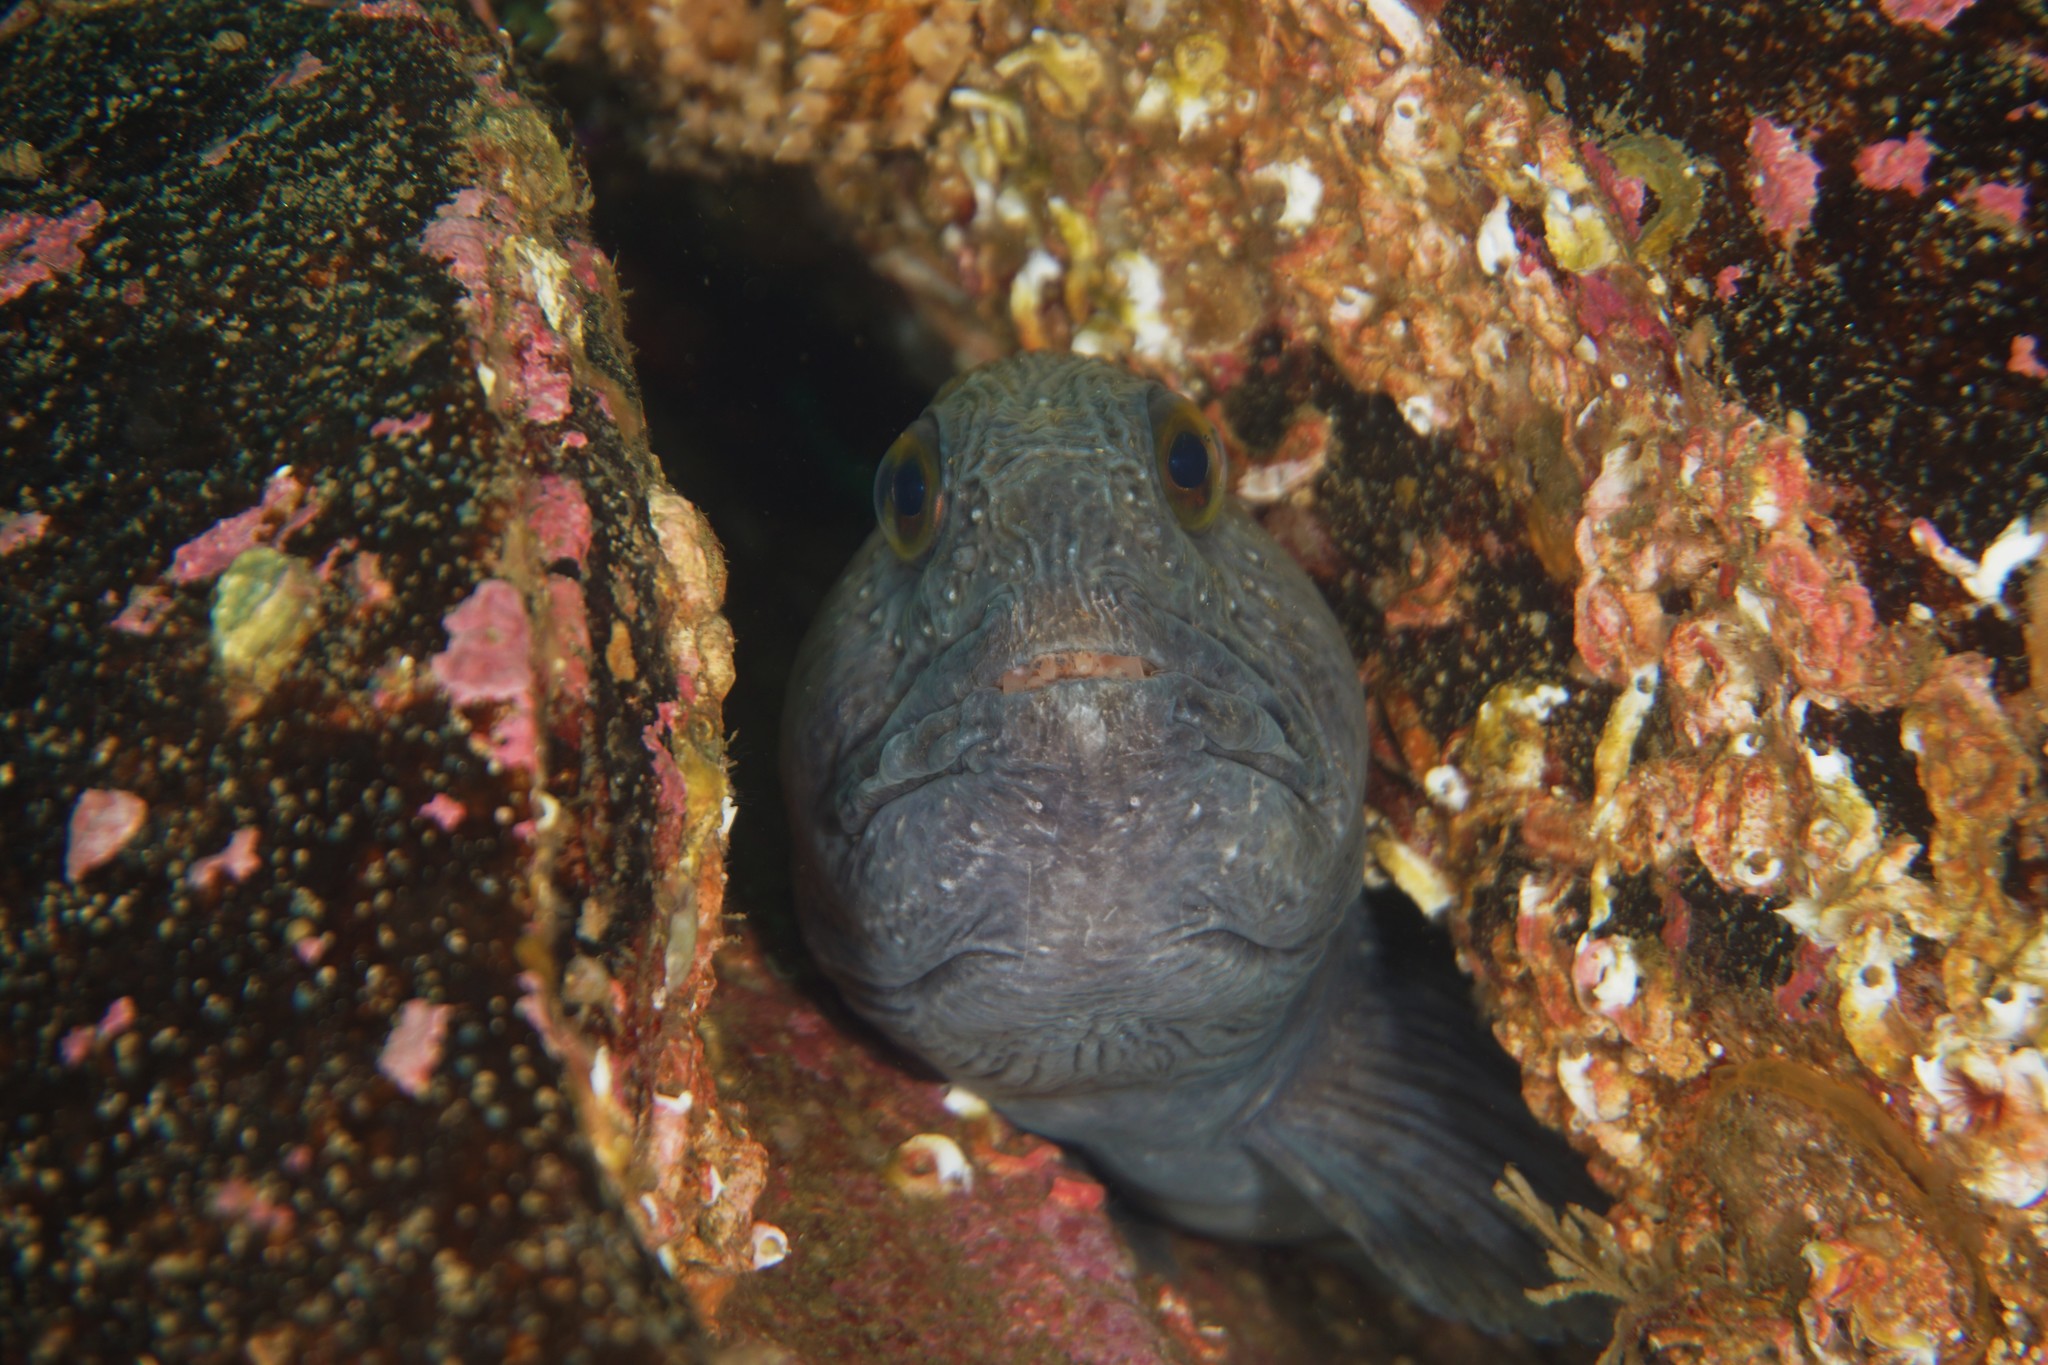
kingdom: Animalia
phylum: Chordata
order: Perciformes
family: Anarhichadidae
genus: Anarhichas
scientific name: Anarhichas lupus
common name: Wolf-fish
